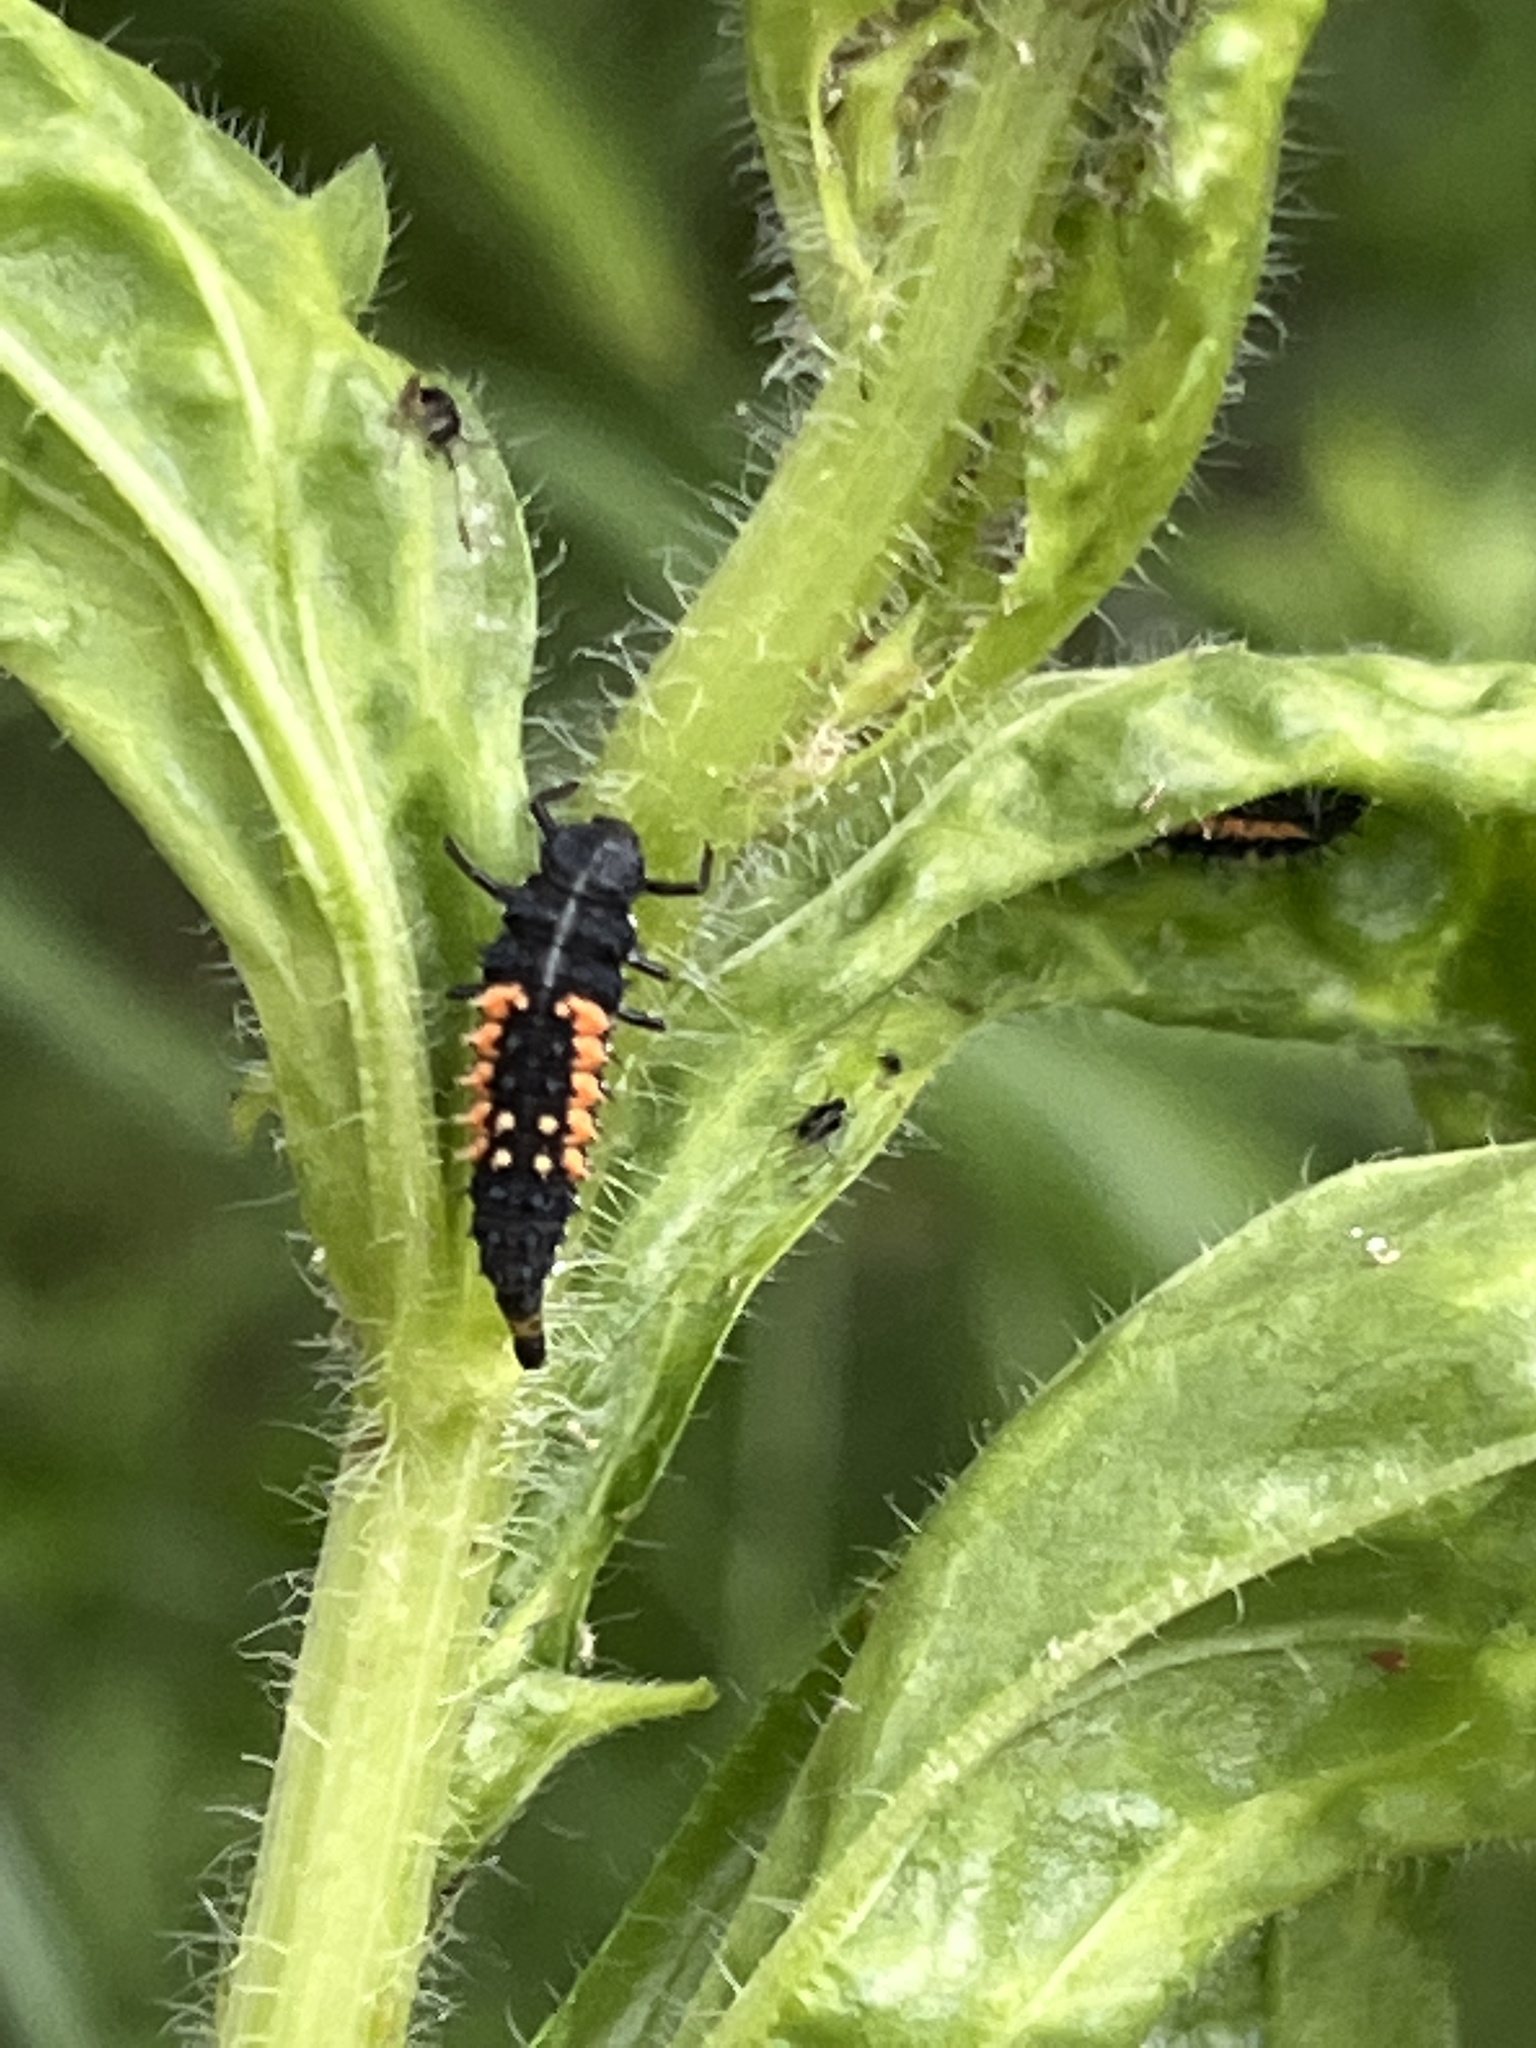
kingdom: Animalia
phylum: Arthropoda
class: Insecta
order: Coleoptera
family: Coccinellidae
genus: Harmonia
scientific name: Harmonia axyridis
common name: Harlequin ladybird
